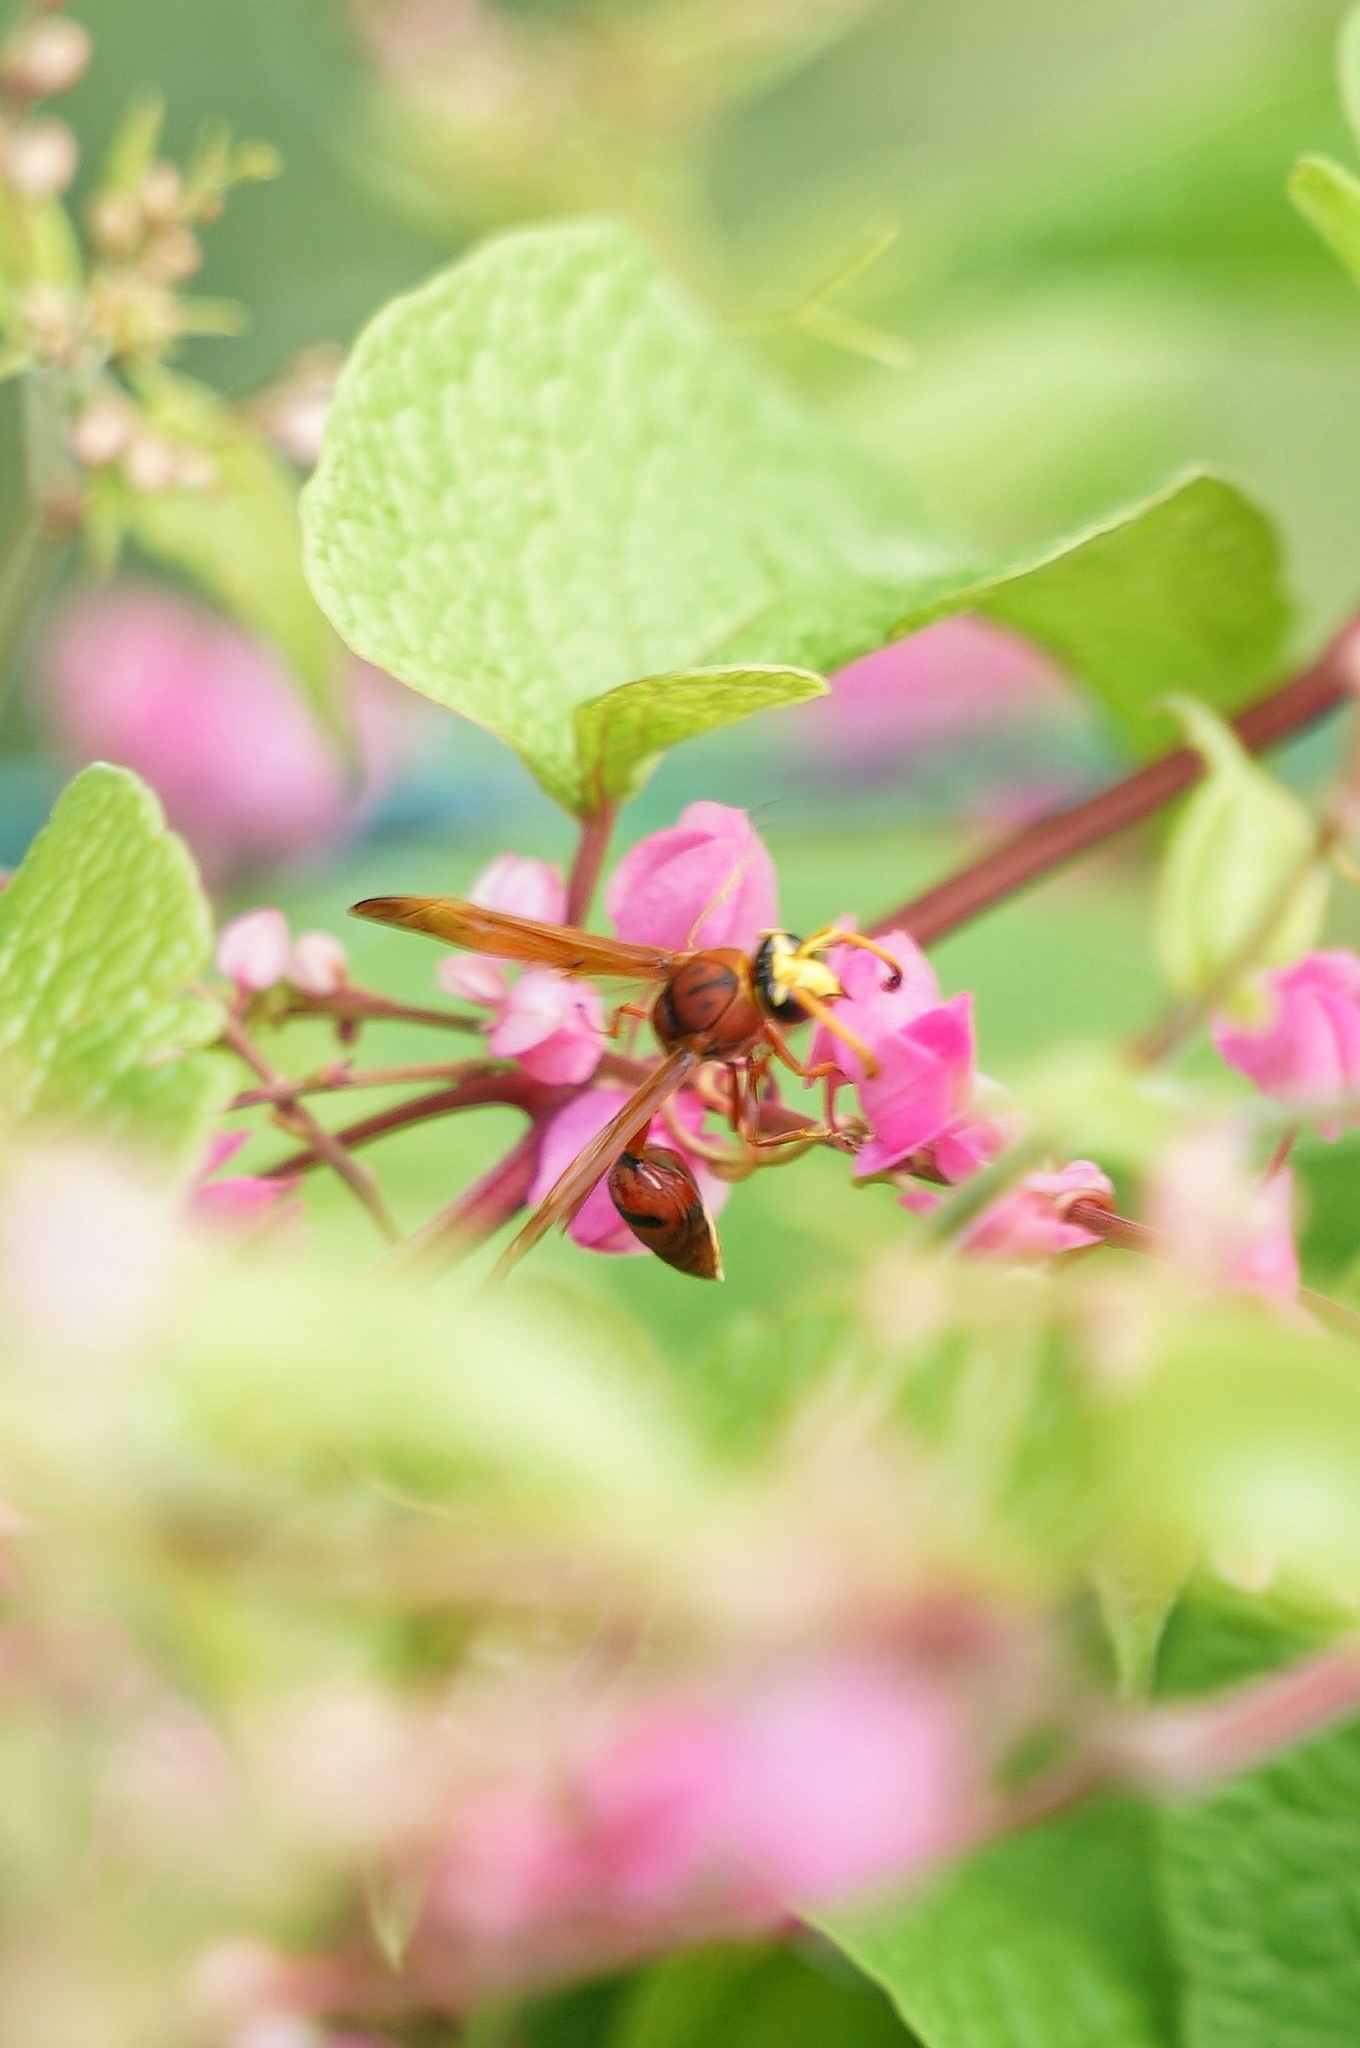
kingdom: Animalia
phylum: Arthropoda
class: Insecta
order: Hymenoptera
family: Eumenidae
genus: Delta
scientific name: Delta conoideum
